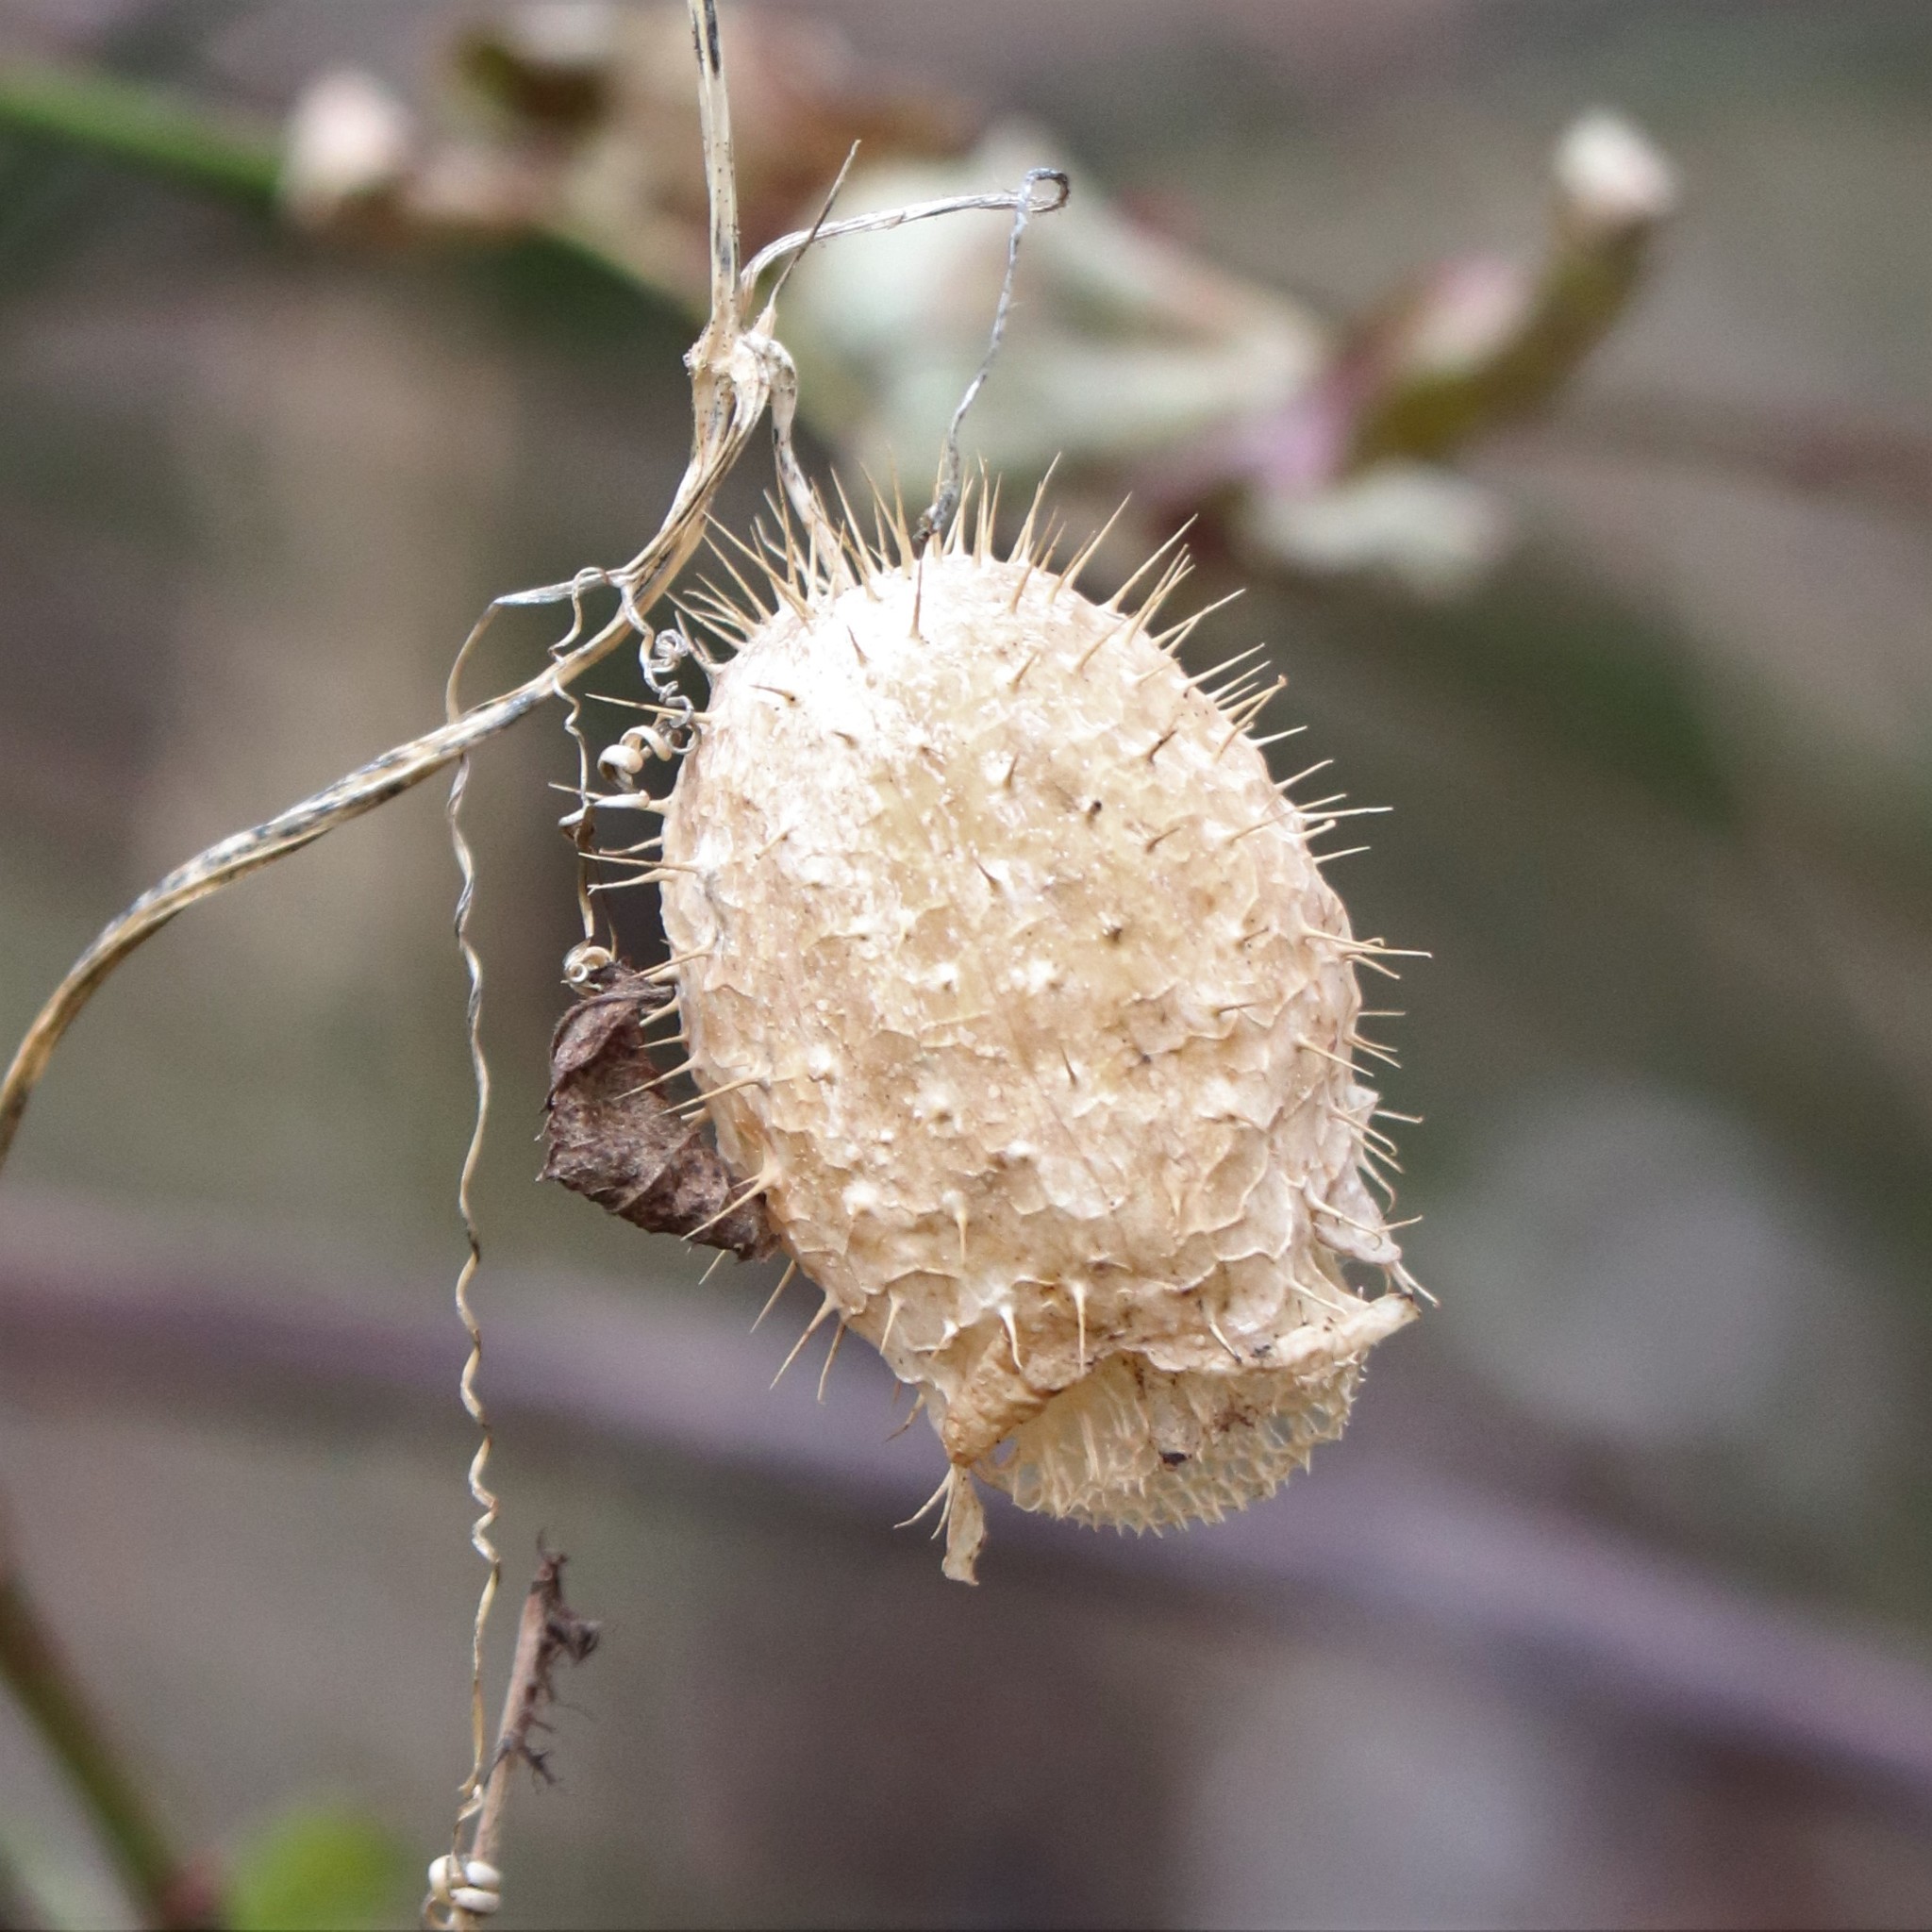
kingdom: Plantae
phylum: Tracheophyta
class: Magnoliopsida
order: Cucurbitales
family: Cucurbitaceae
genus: Echinocystis
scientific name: Echinocystis lobata
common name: Wild cucumber
